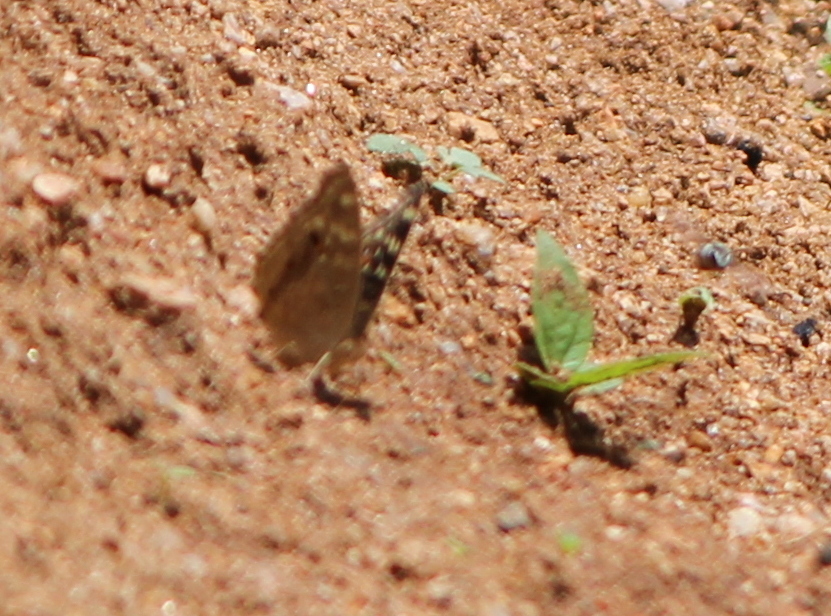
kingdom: Animalia
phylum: Arthropoda
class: Insecta
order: Lepidoptera
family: Nymphalidae
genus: Junonia
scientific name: Junonia lemonias
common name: Lemon pansy
